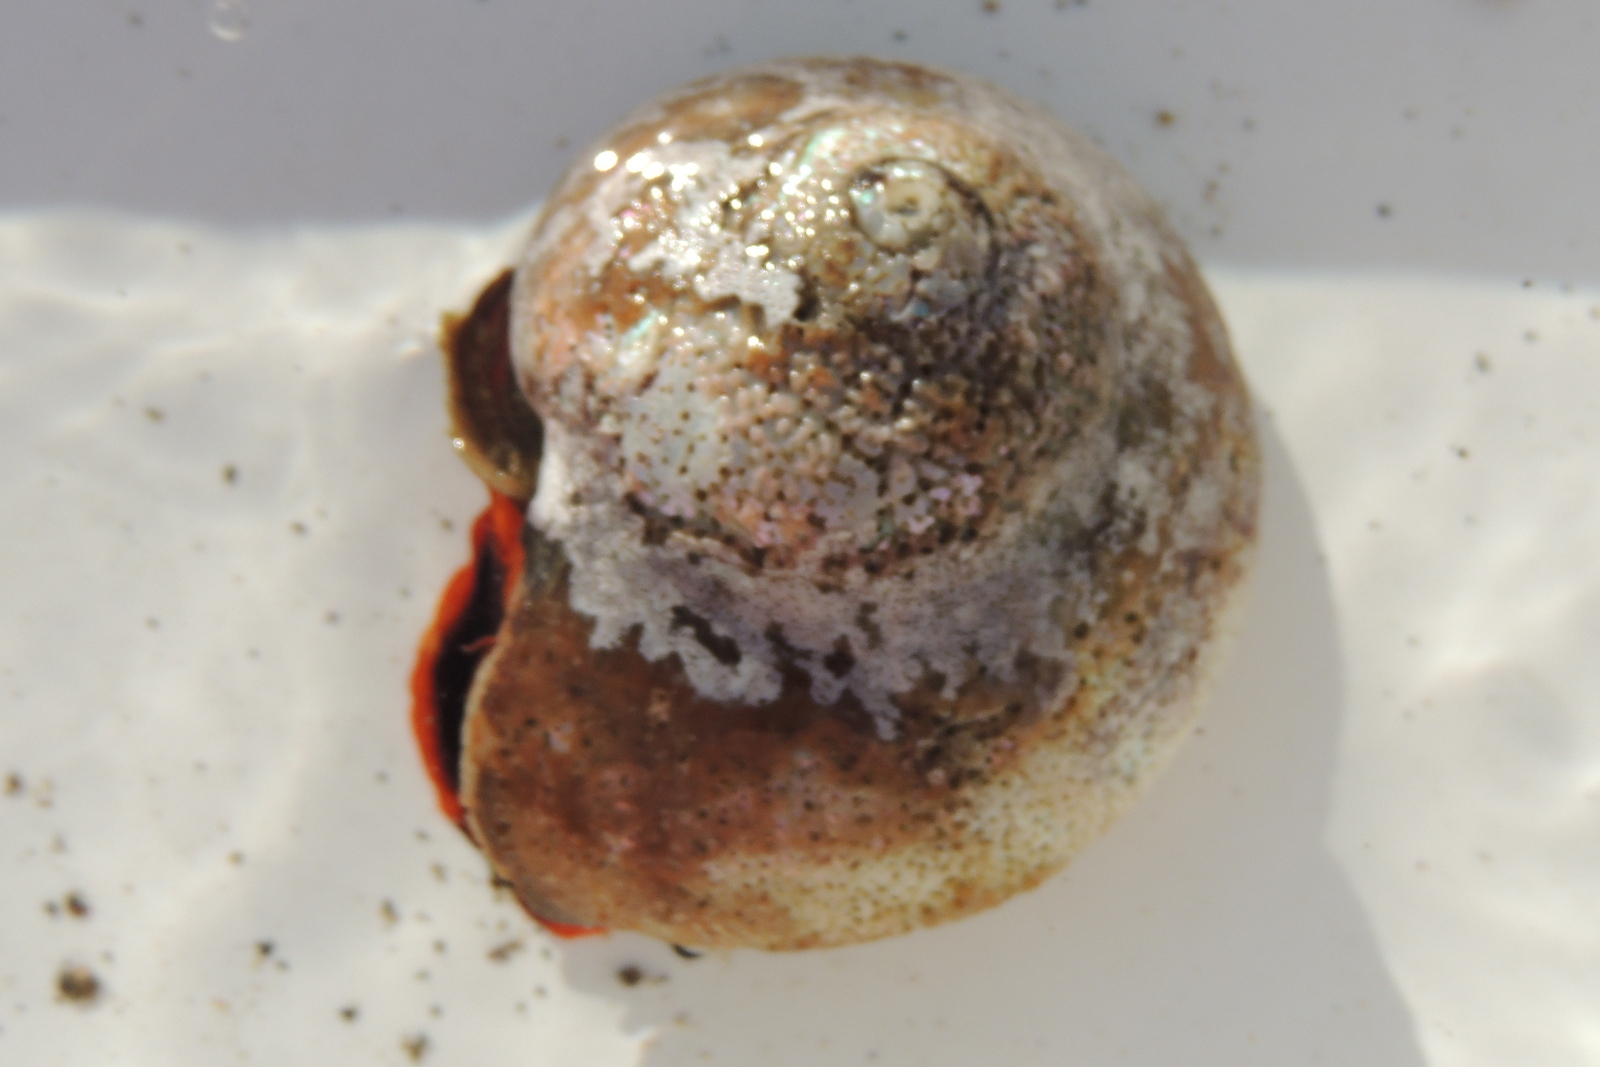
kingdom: Animalia
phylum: Mollusca
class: Gastropoda
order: Trochida
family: Tegulidae
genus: Norrisia
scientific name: Norrisia norrisii
